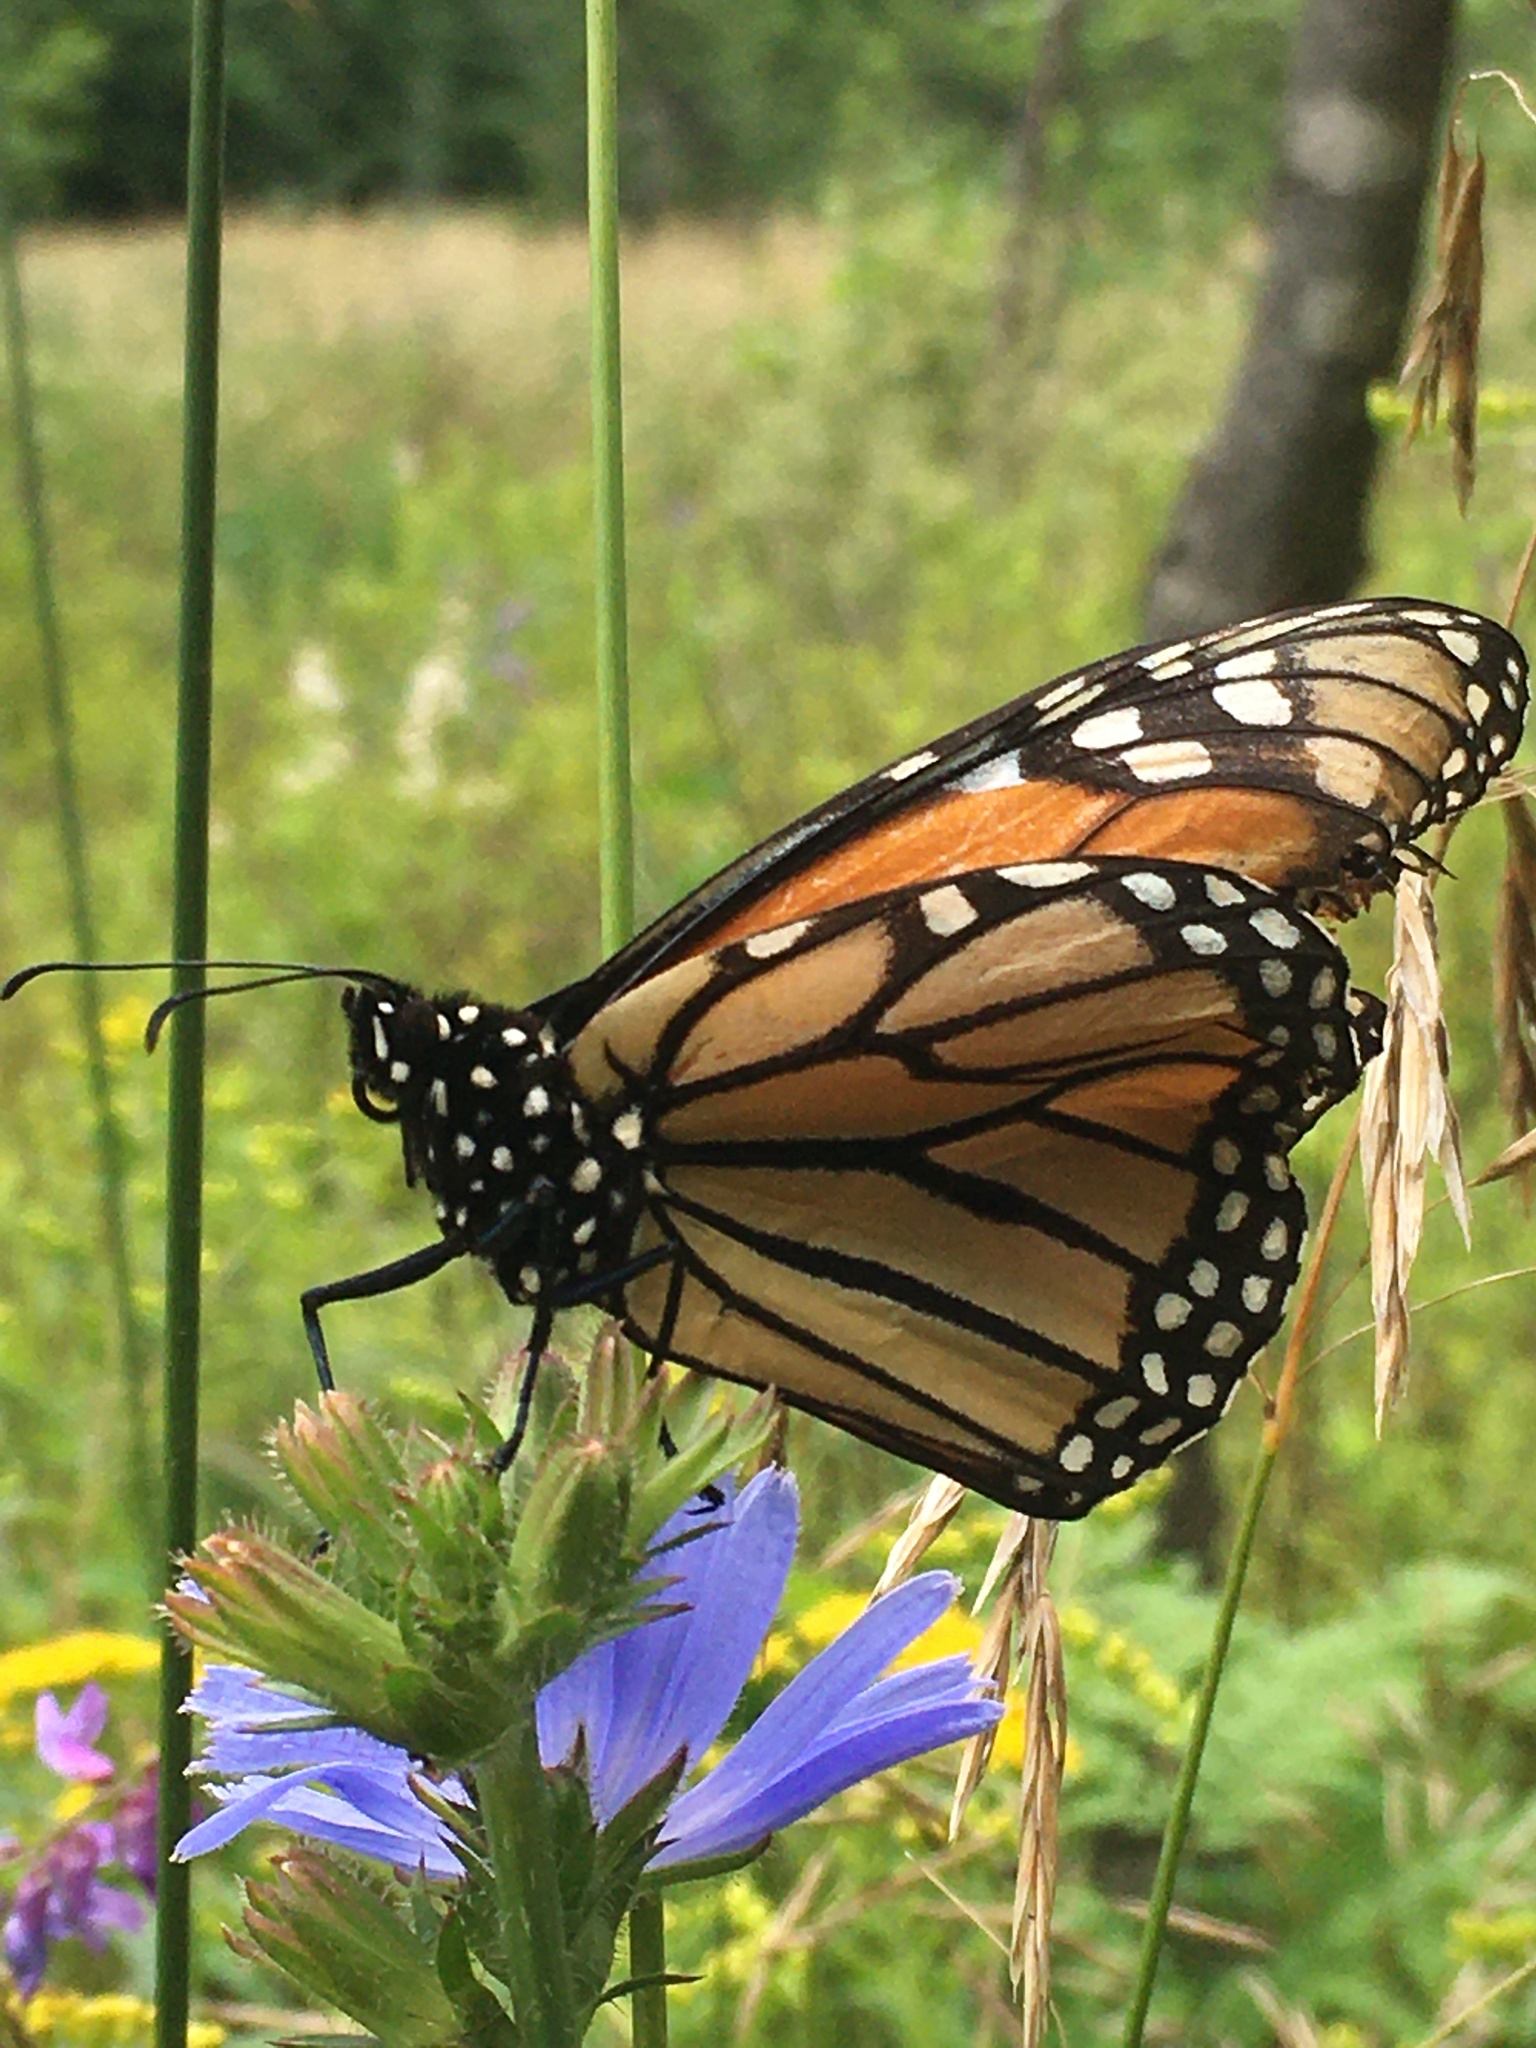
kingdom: Animalia
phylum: Arthropoda
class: Insecta
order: Lepidoptera
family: Nymphalidae
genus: Danaus
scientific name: Danaus plexippus
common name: Monarch
